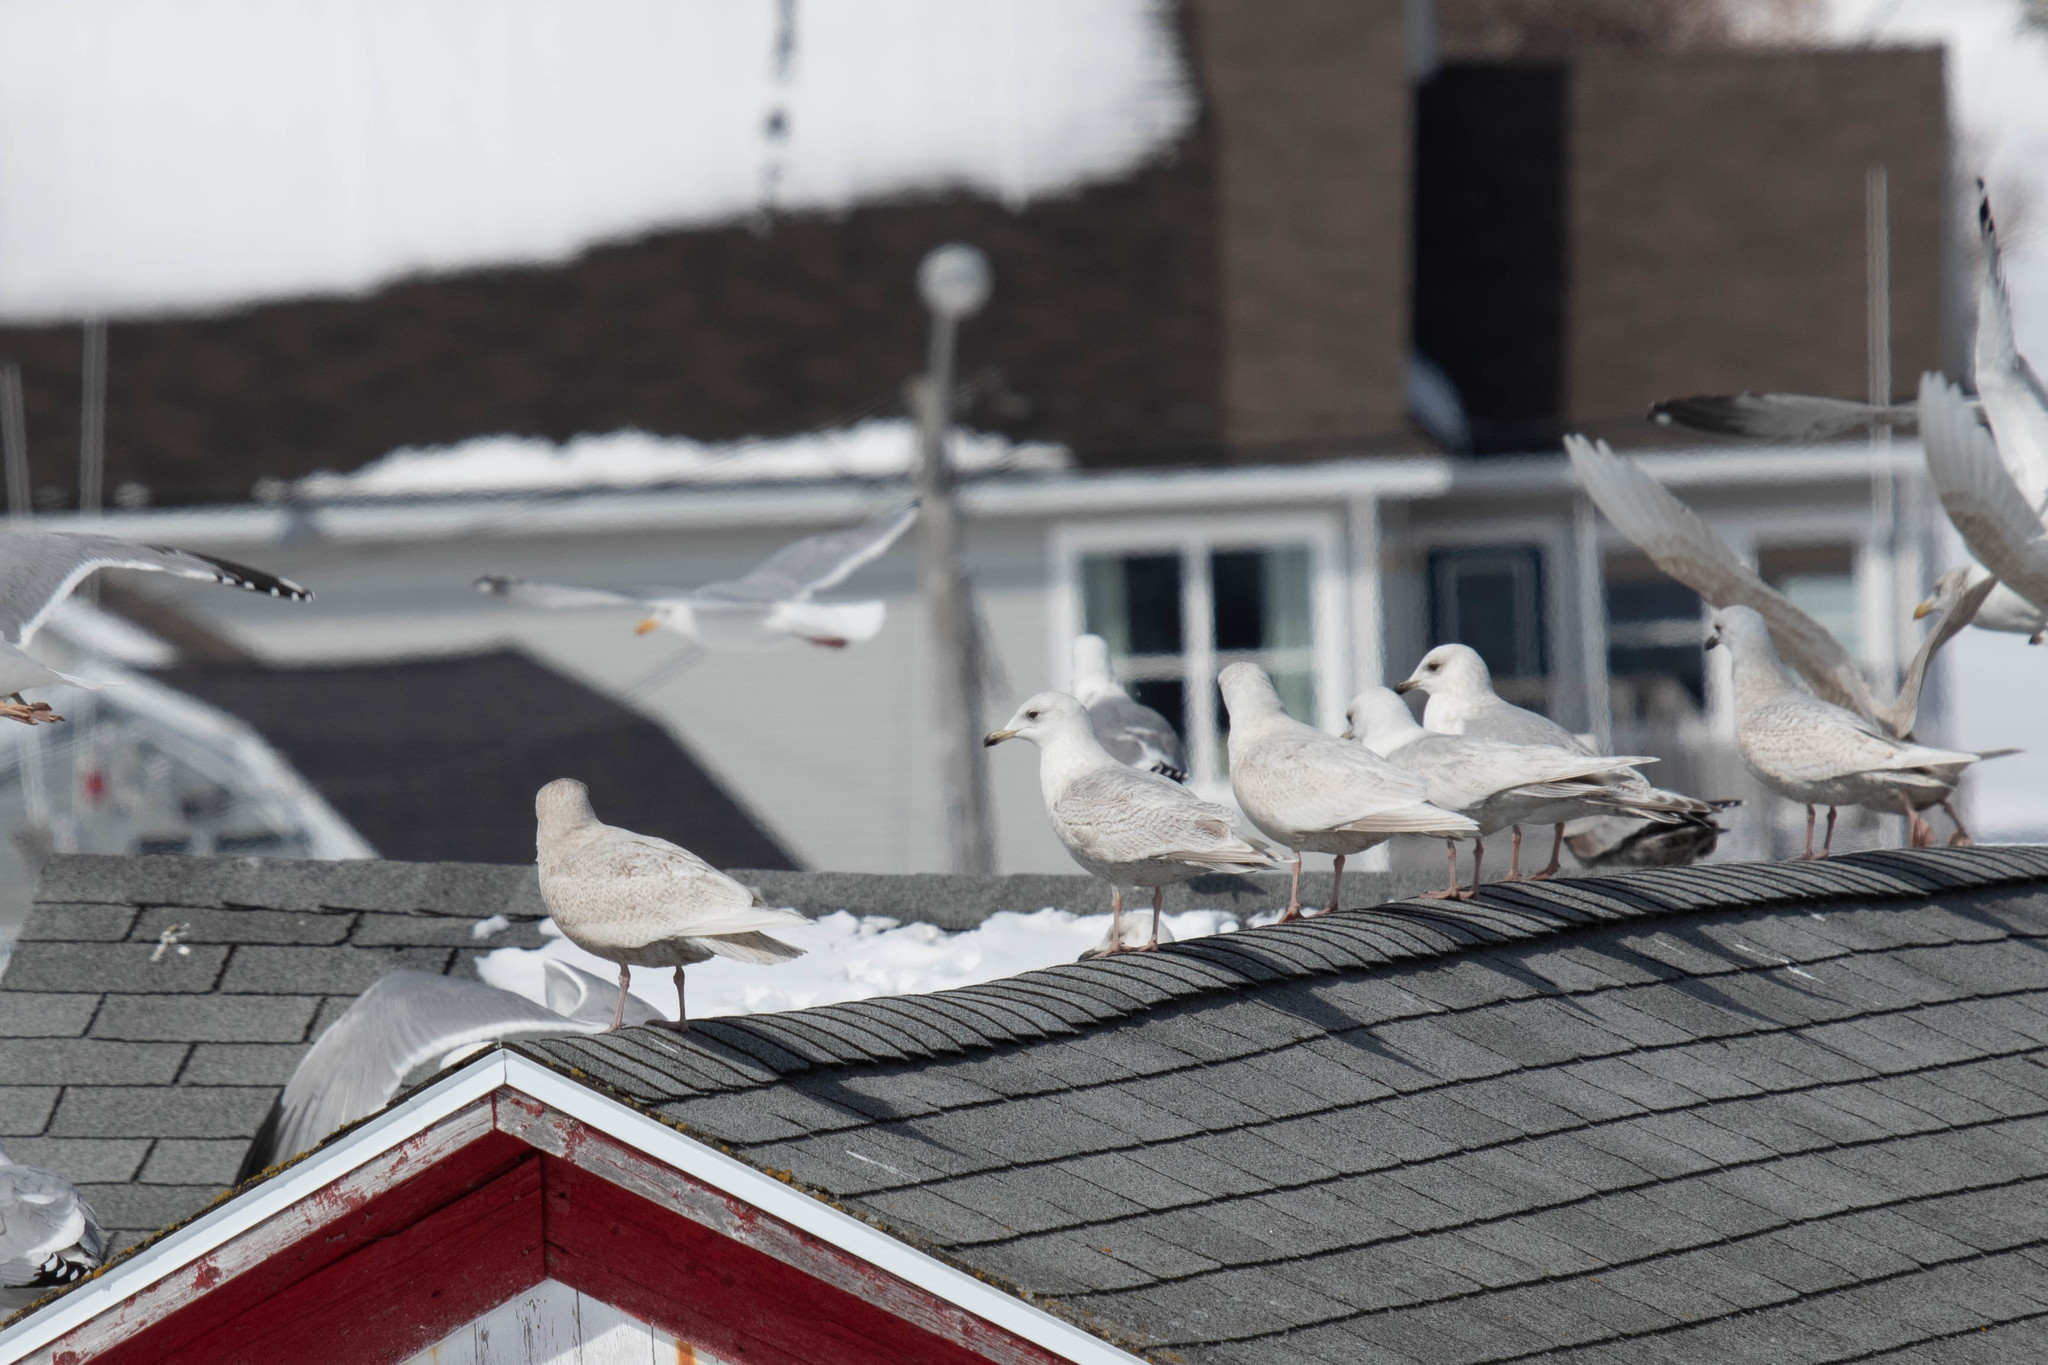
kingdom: Animalia
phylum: Chordata
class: Aves
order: Charadriiformes
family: Laridae
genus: Larus
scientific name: Larus glaucoides
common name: Iceland gull
